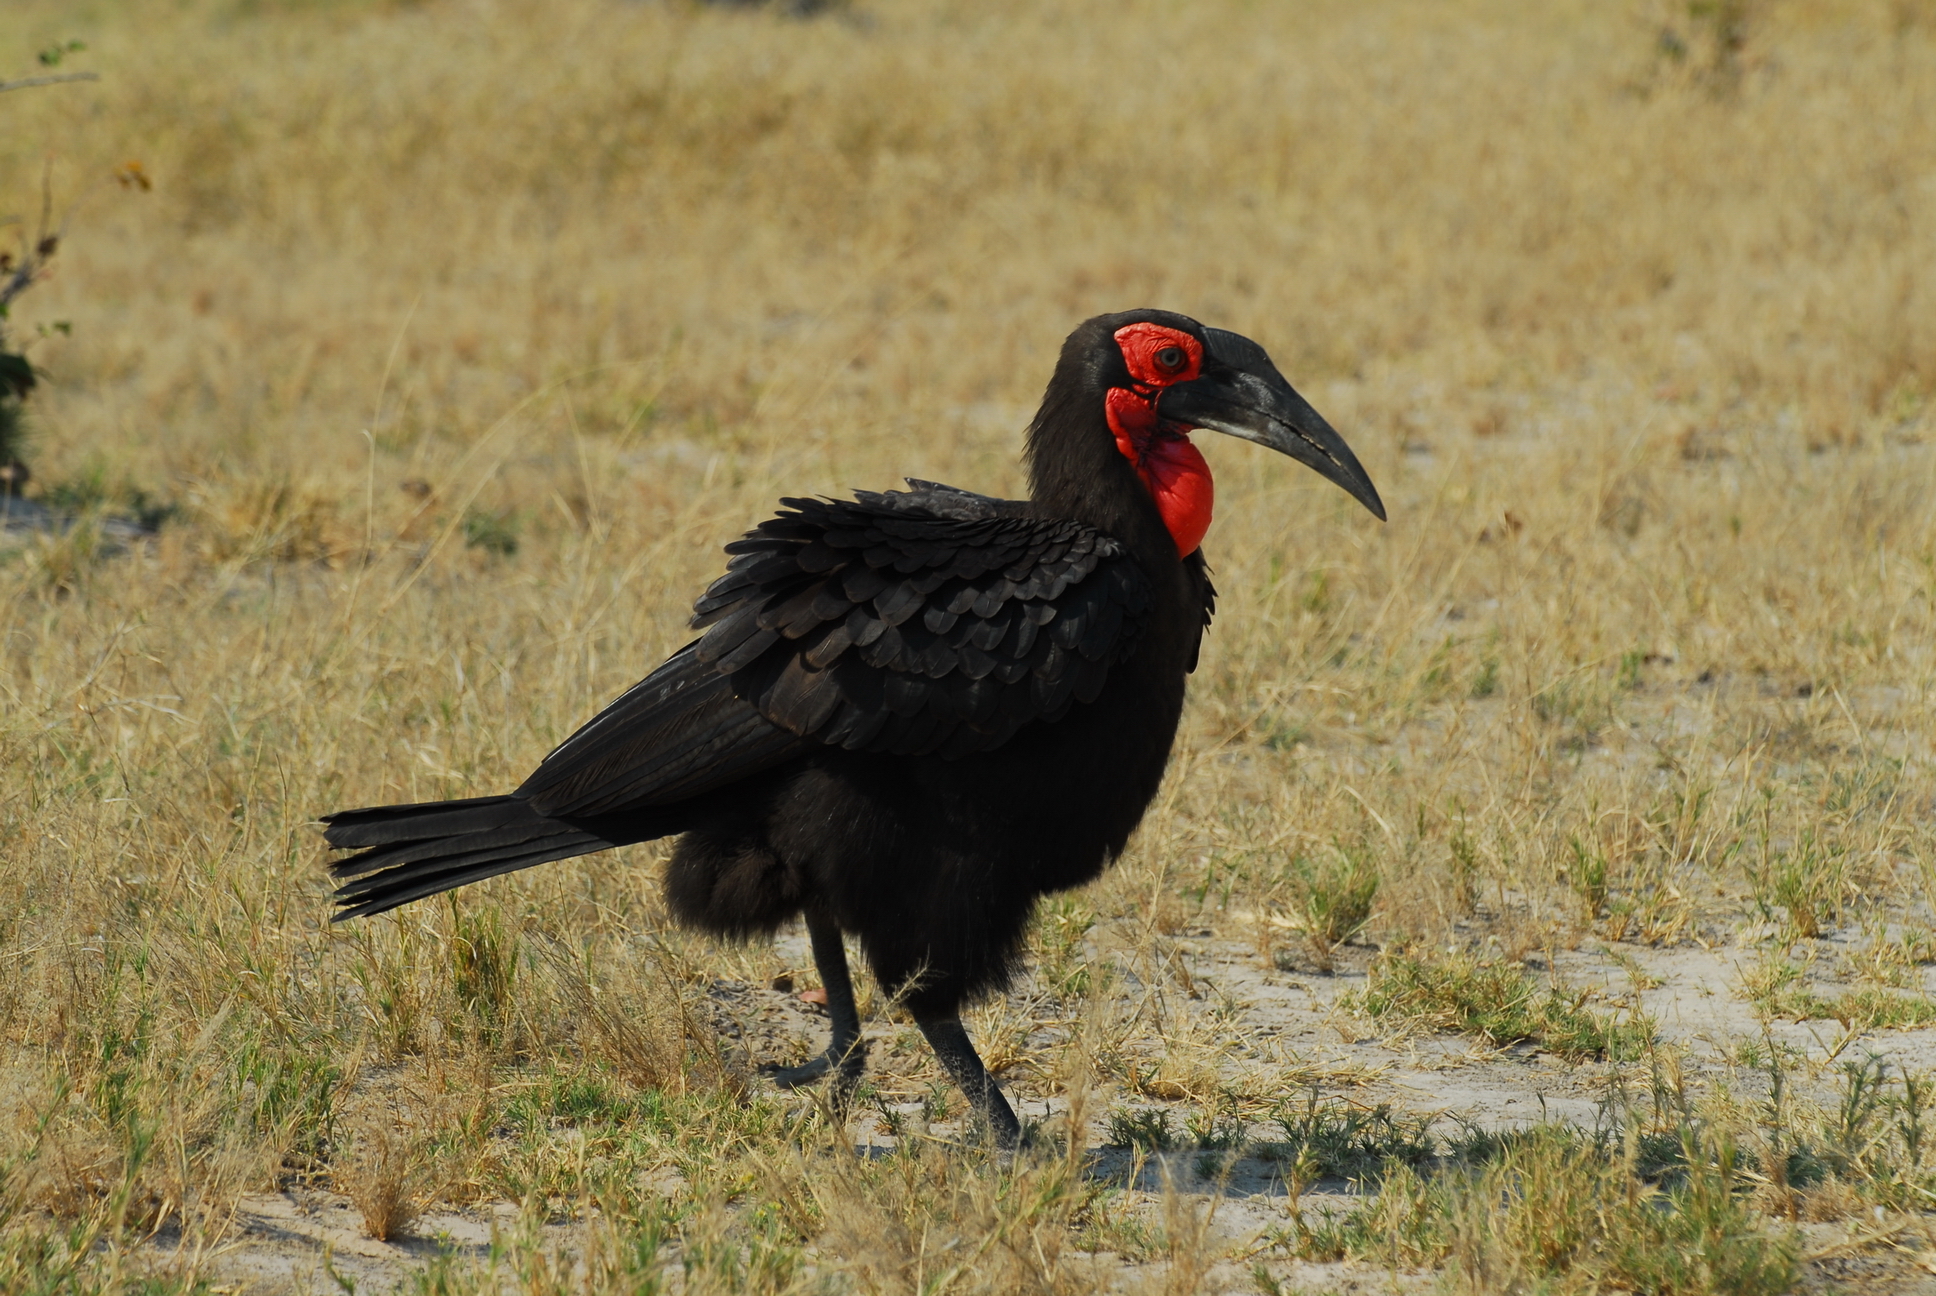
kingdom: Animalia
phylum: Chordata
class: Aves
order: Bucerotiformes
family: Bucorvidae
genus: Bucorvus
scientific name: Bucorvus leadbeateri
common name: Southern ground-hornbill
